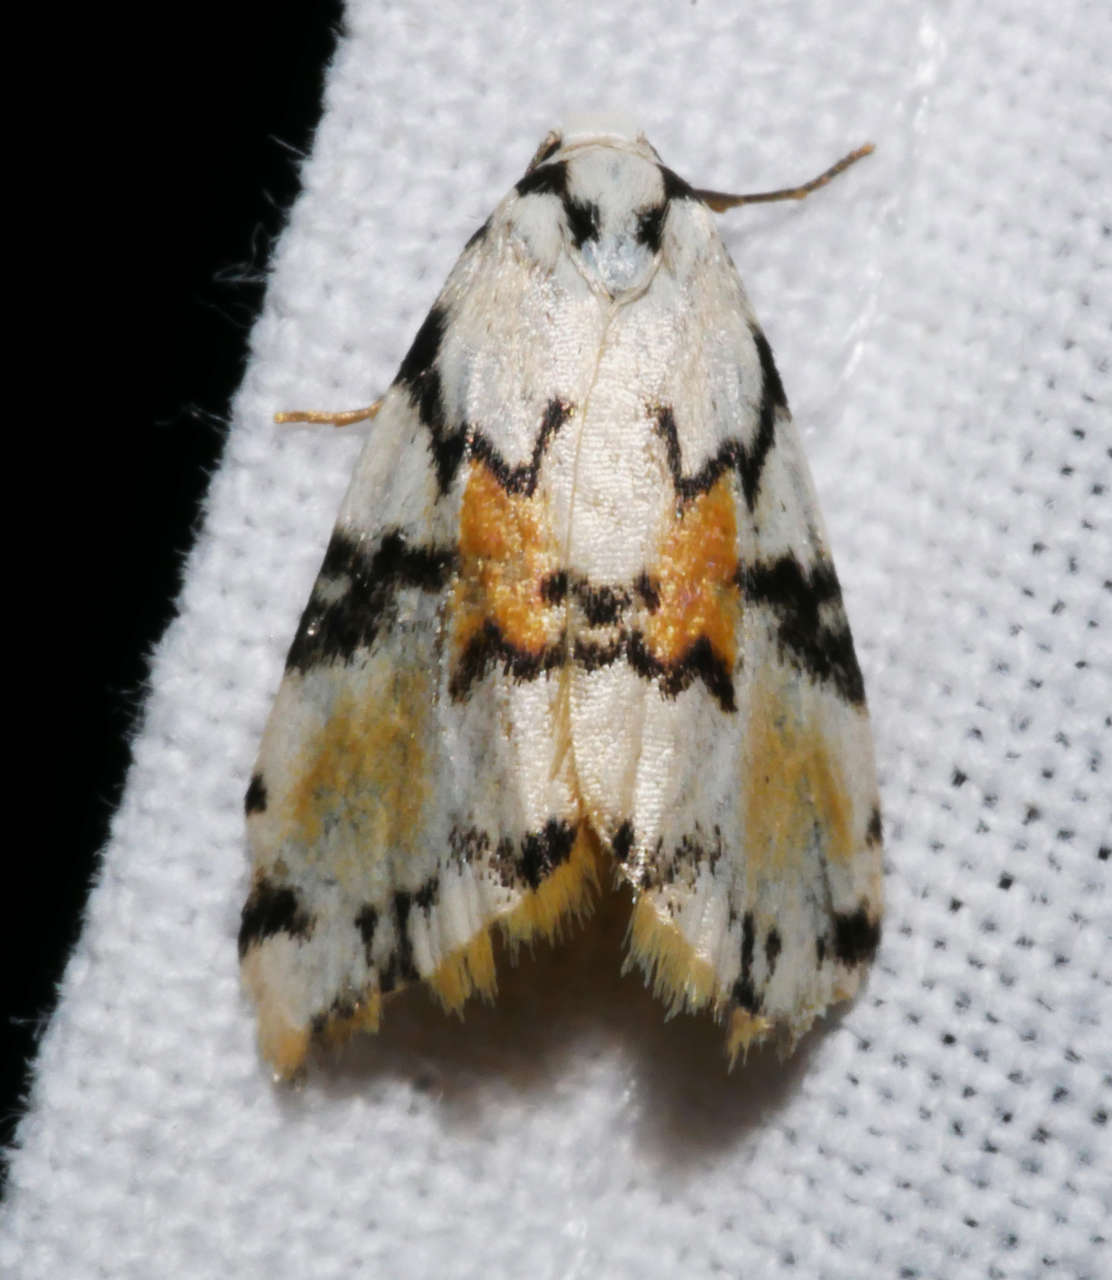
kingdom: Animalia
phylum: Arthropoda
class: Insecta
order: Lepidoptera
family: Erebidae
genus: Thallarcha
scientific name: Thallarcha oblita
